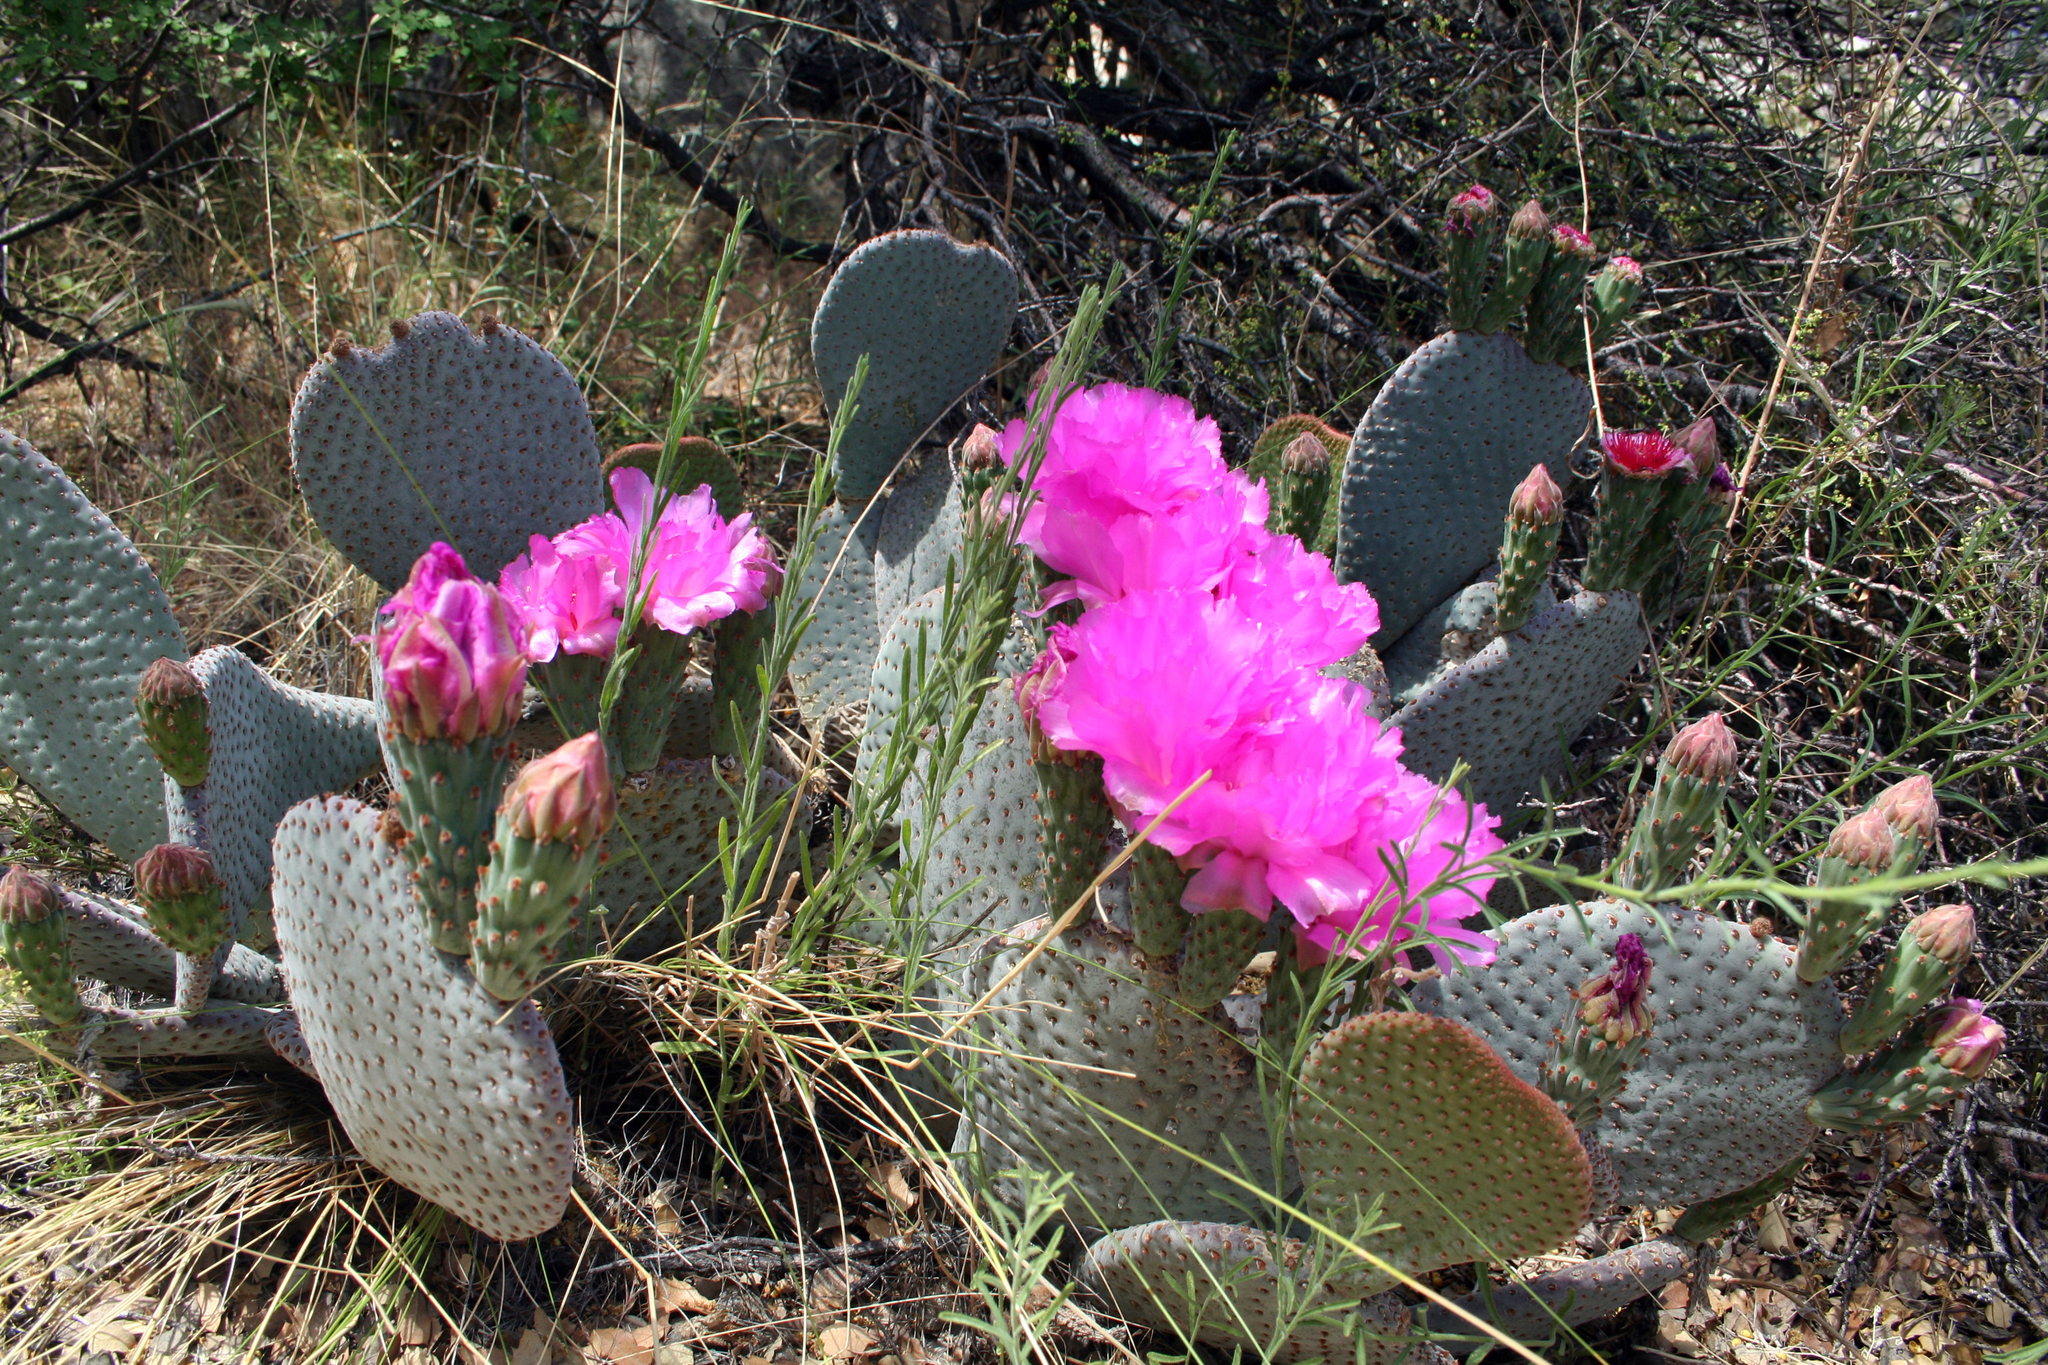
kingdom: Plantae
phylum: Tracheophyta
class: Magnoliopsida
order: Caryophyllales
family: Cactaceae
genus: Opuntia
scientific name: Opuntia basilaris
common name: Beavertail prickly-pear
